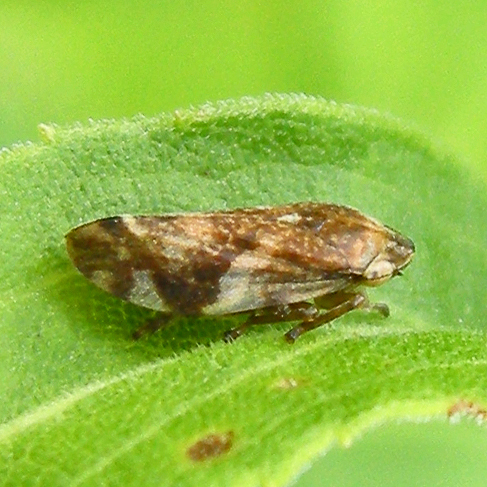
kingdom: Animalia
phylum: Arthropoda
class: Insecta
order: Hemiptera
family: Aphrophoridae
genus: Philaenus
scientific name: Philaenus spumarius
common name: Meadow spittlebug
